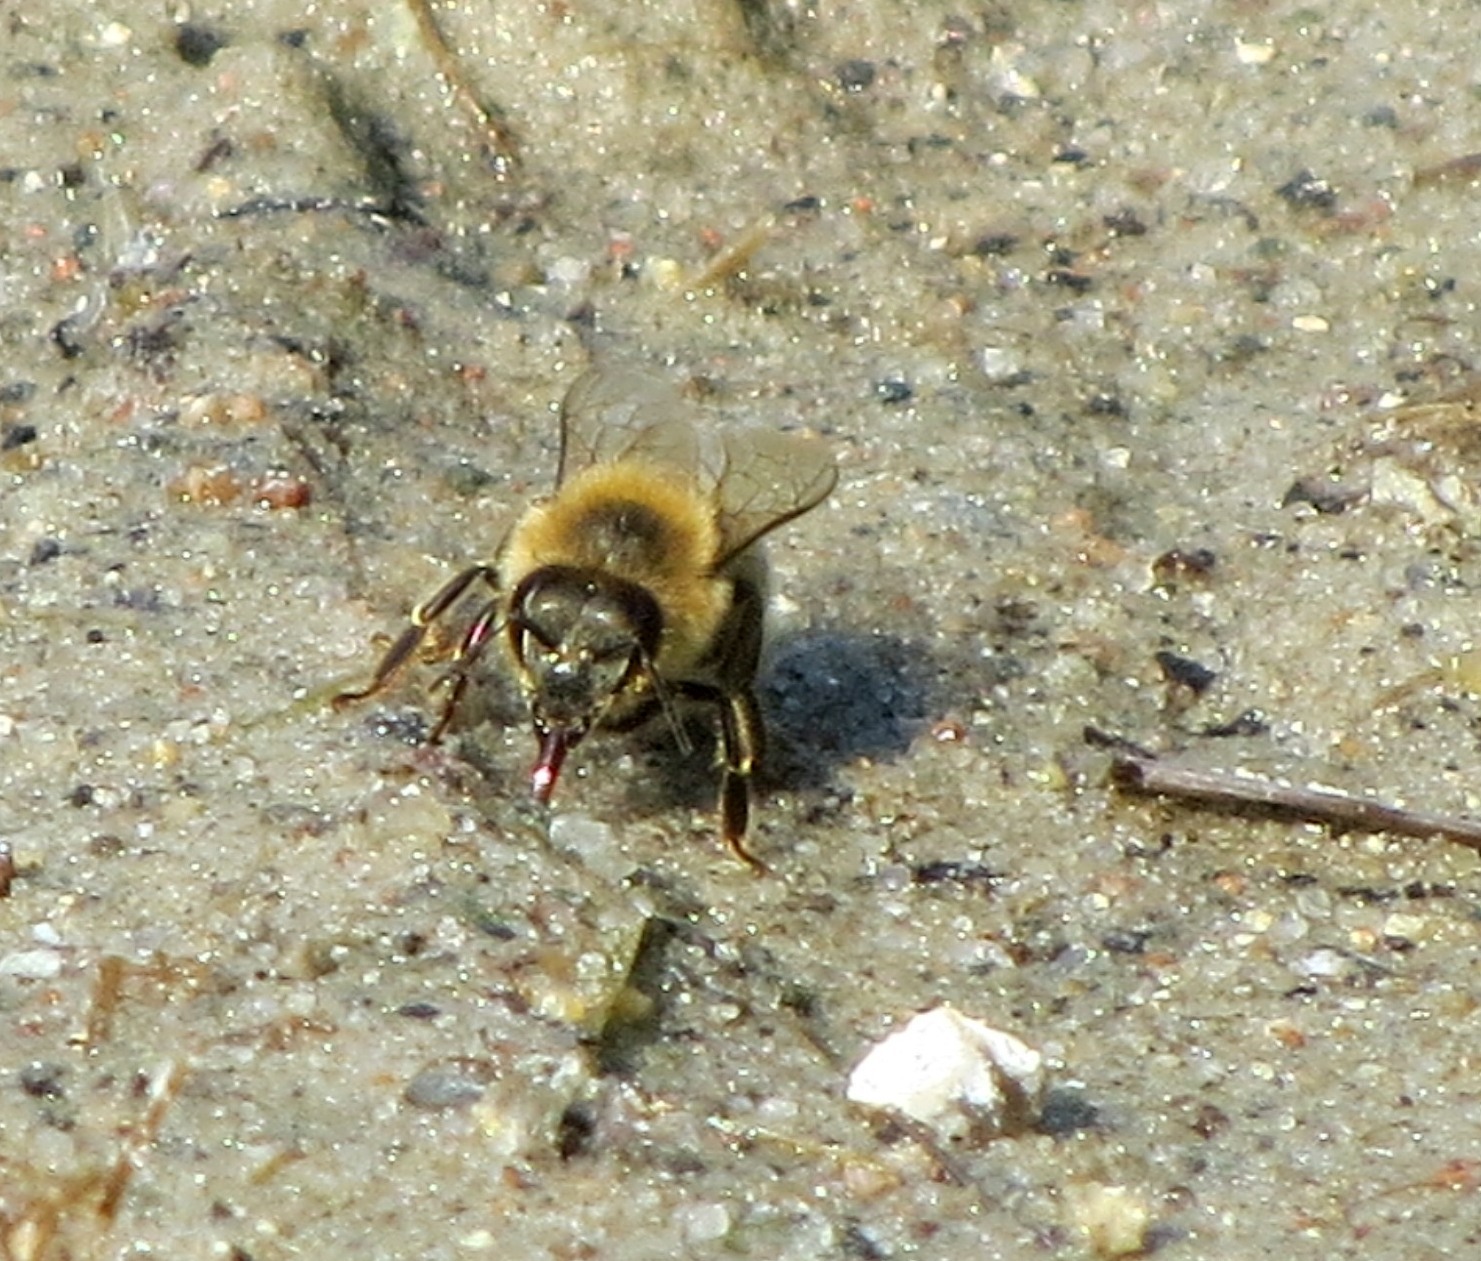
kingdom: Animalia
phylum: Arthropoda
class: Insecta
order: Hymenoptera
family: Apidae
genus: Apis
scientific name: Apis mellifera
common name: Honey bee
